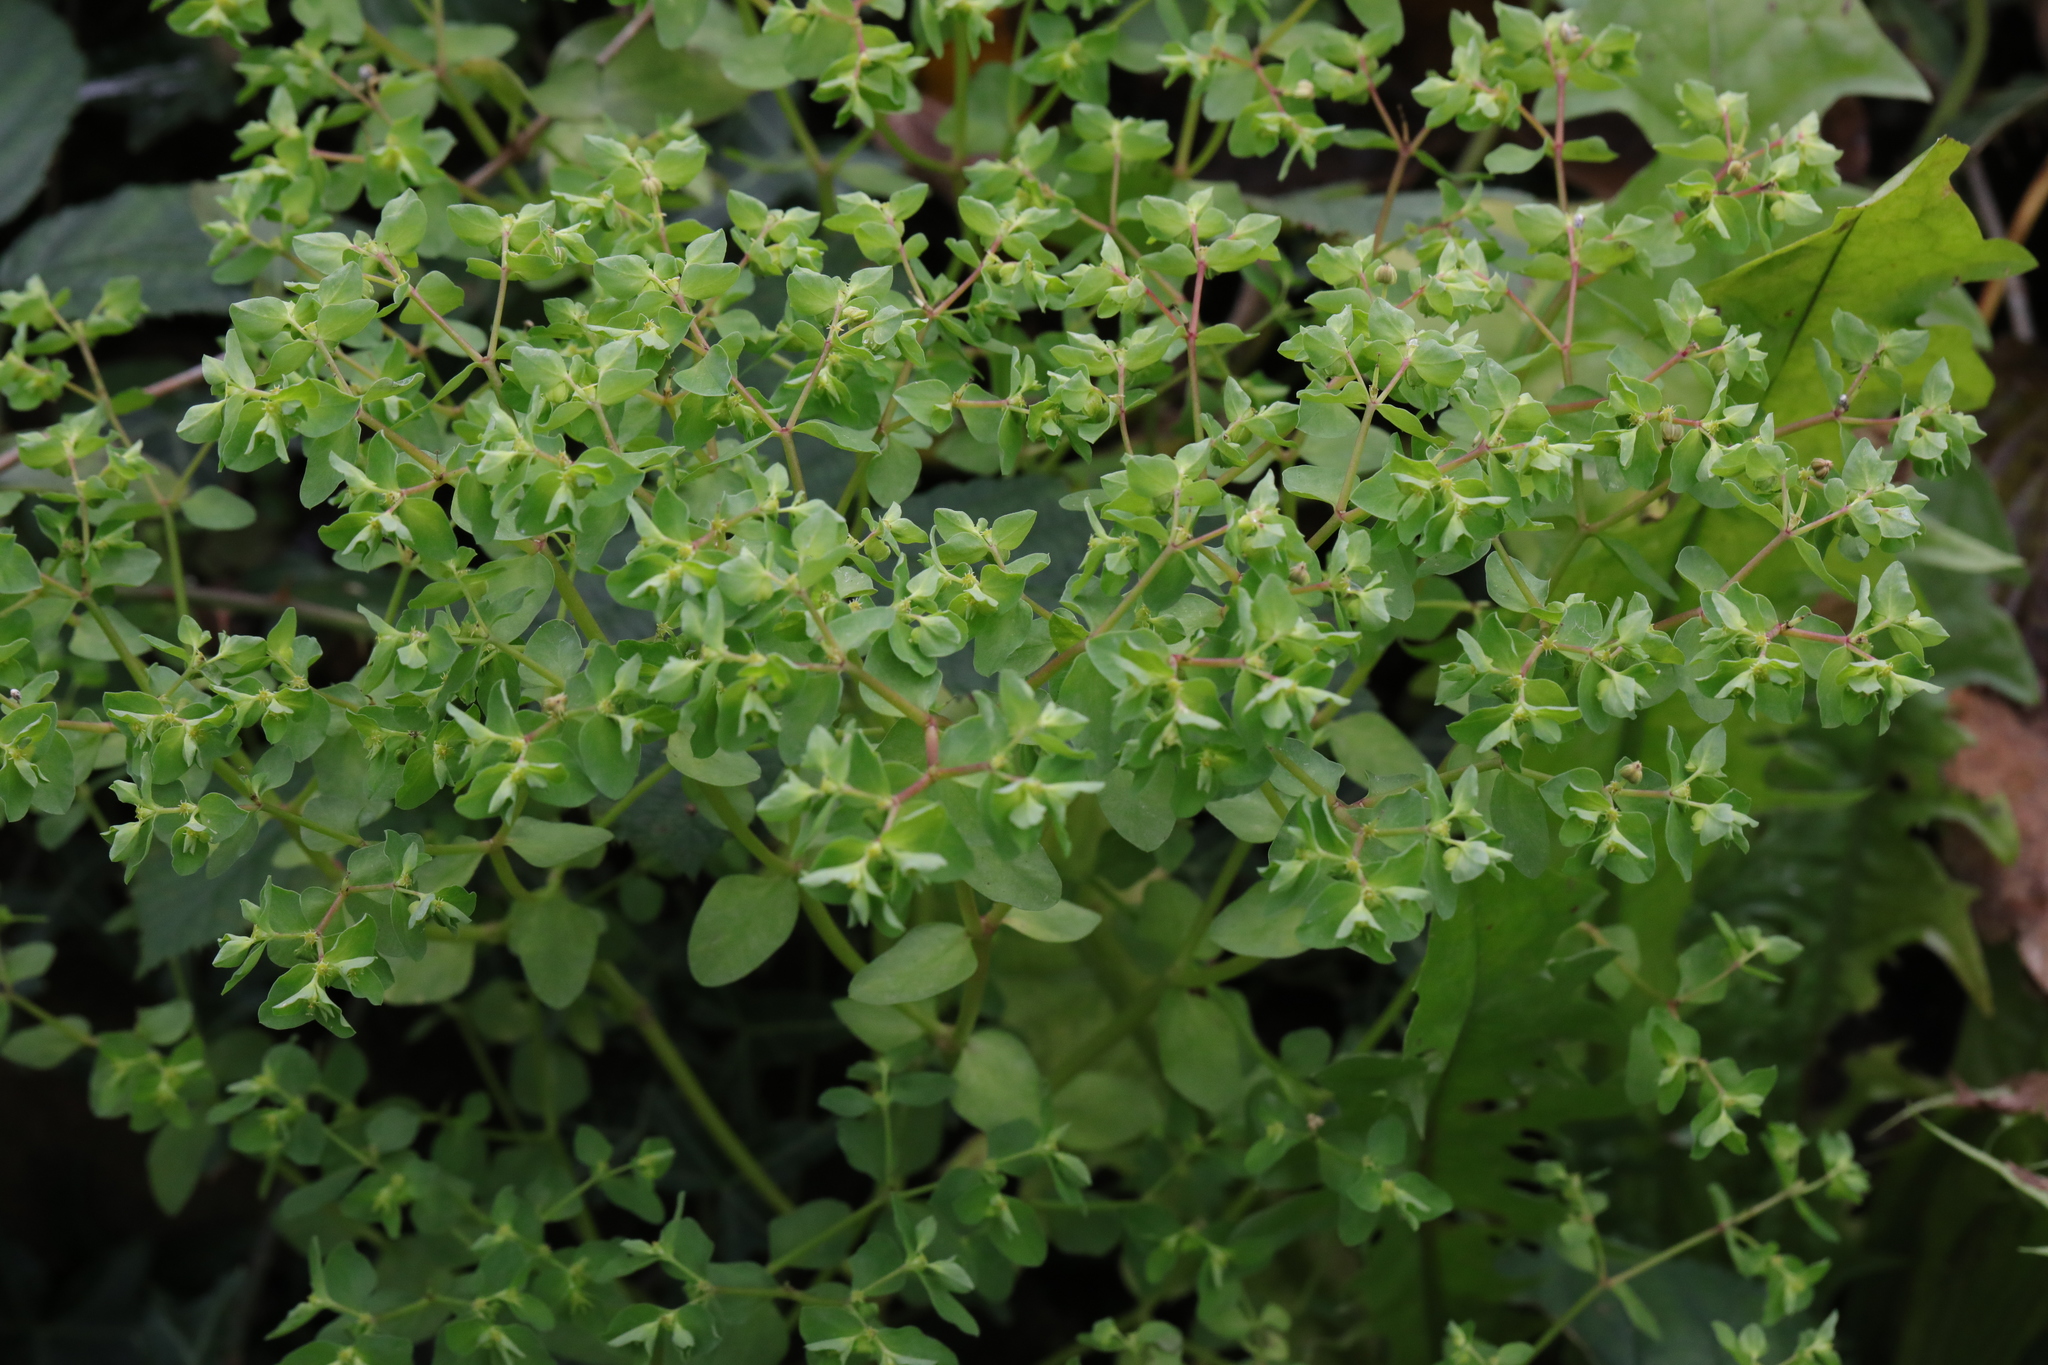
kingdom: Plantae
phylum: Tracheophyta
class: Magnoliopsida
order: Malpighiales
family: Euphorbiaceae
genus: Euphorbia
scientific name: Euphorbia peplus
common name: Petty spurge
